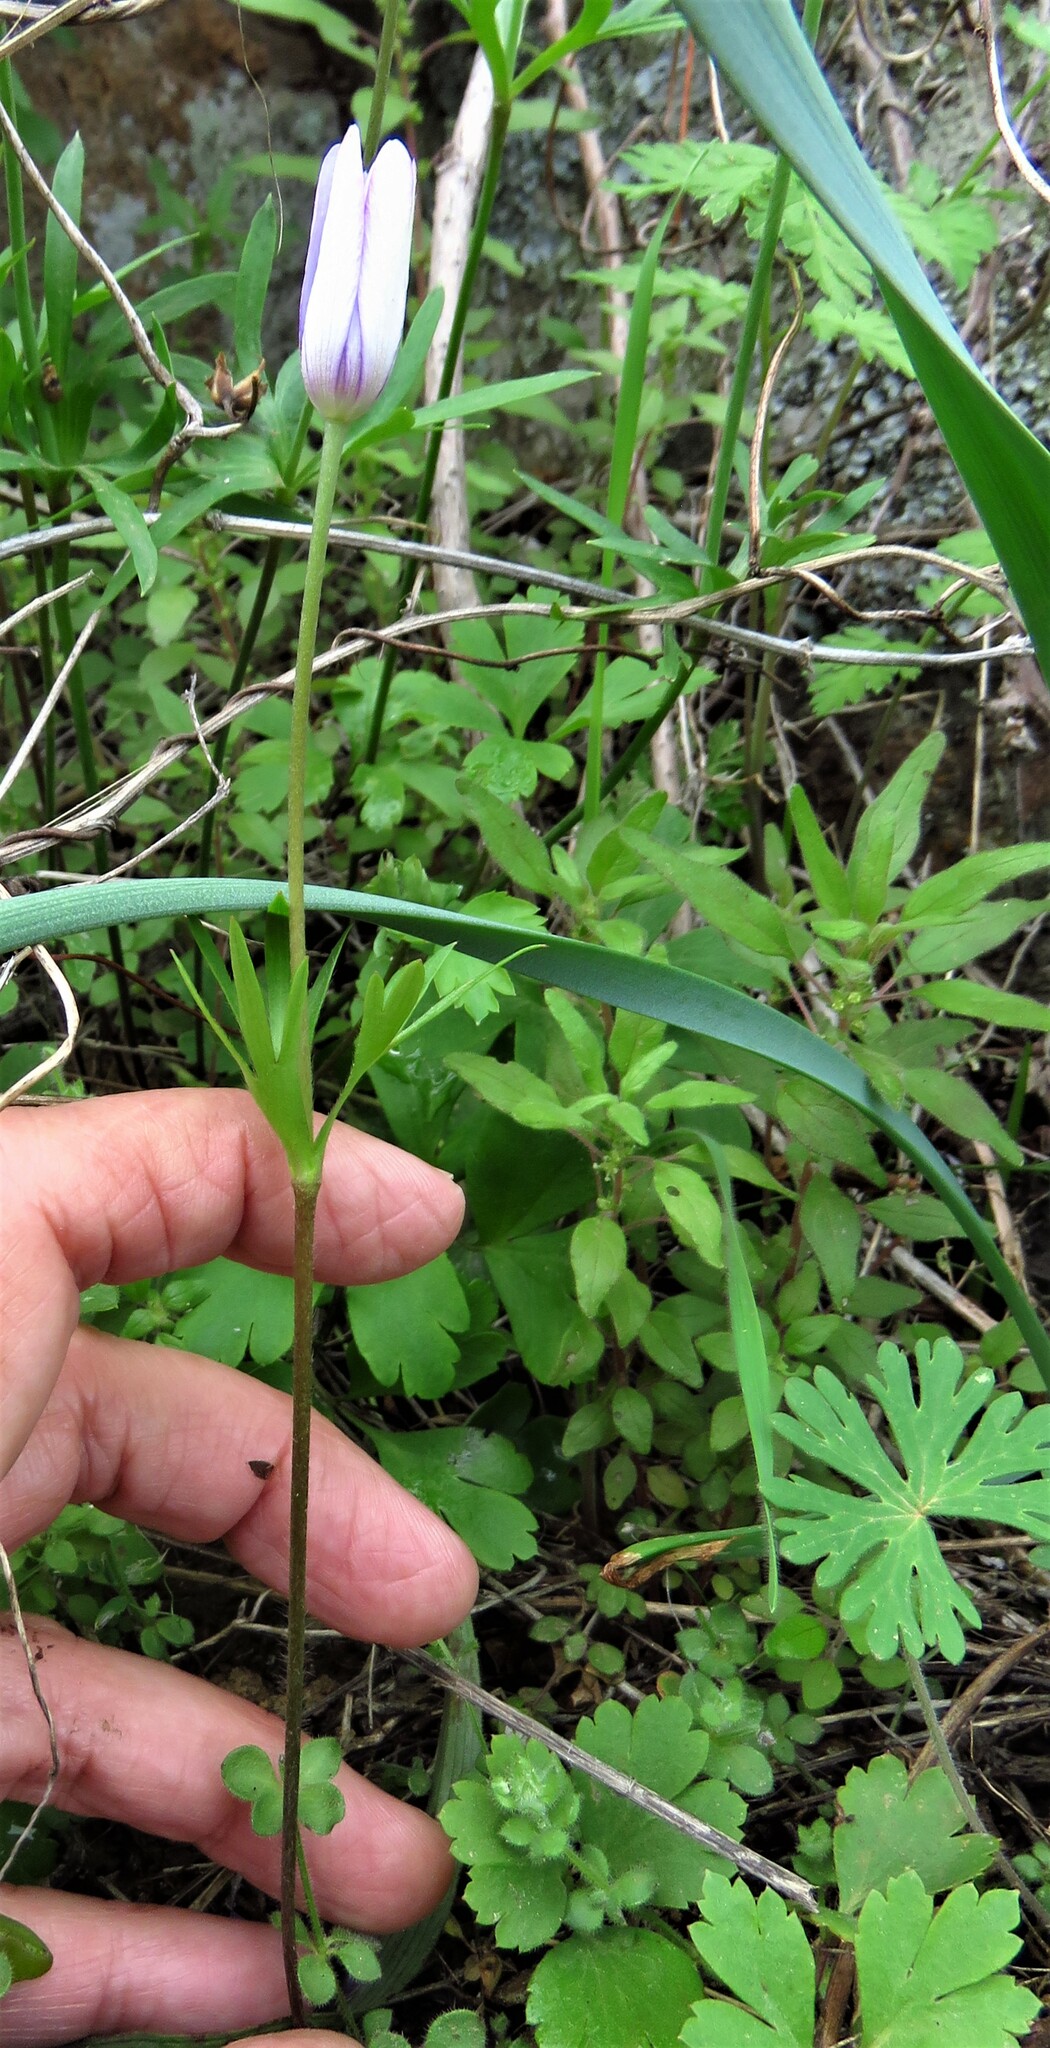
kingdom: Plantae
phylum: Tracheophyta
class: Magnoliopsida
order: Ranunculales
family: Ranunculaceae
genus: Anemone
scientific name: Anemone berlandieri
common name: Ten-petal anemone
